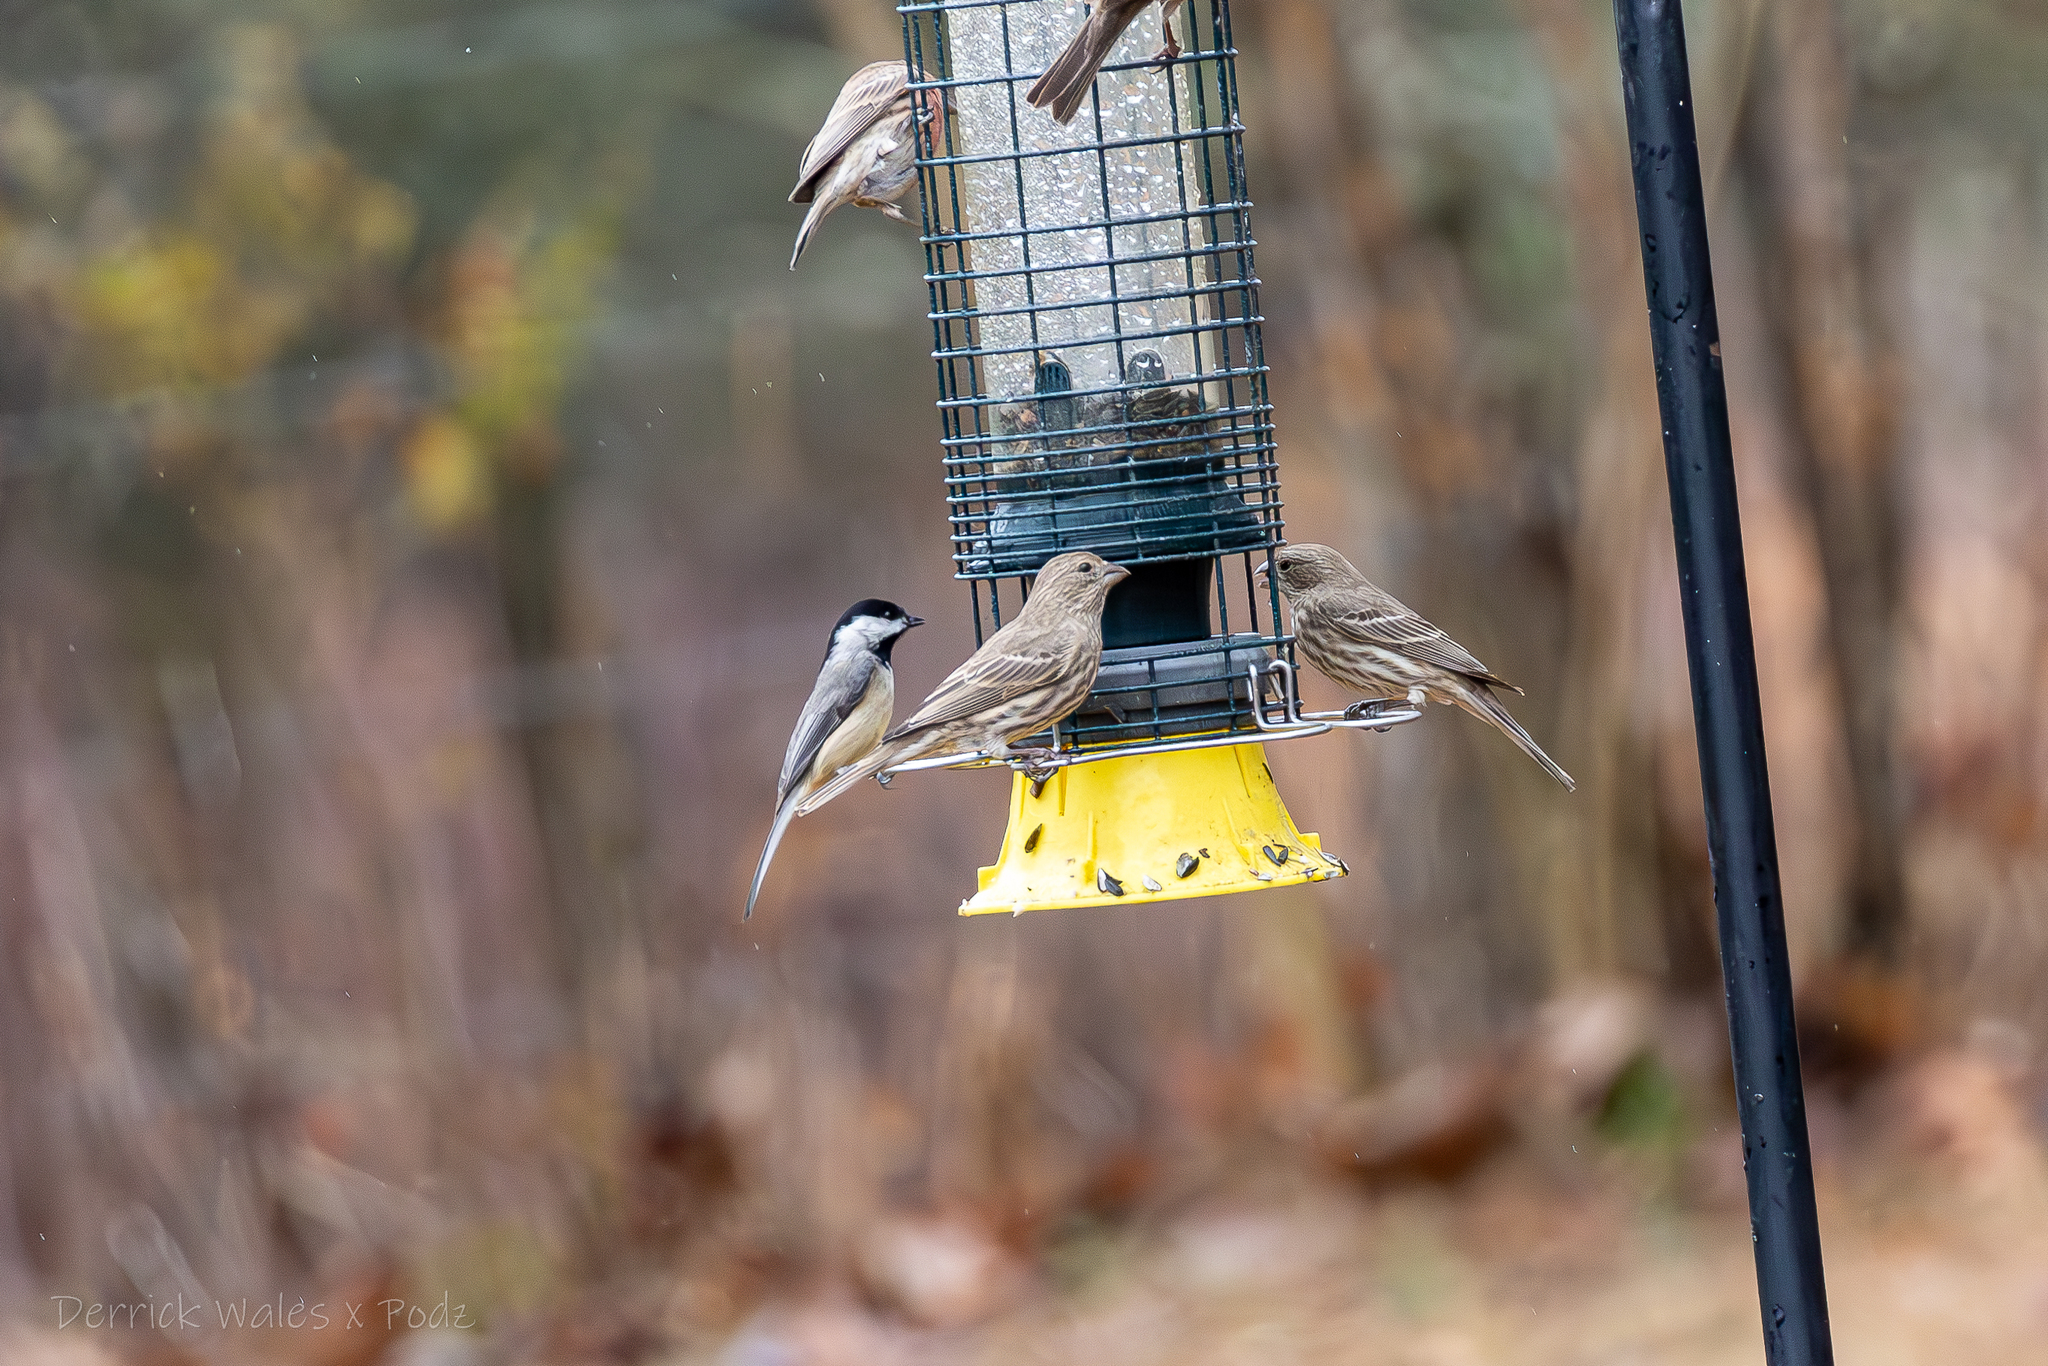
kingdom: Animalia
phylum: Chordata
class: Aves
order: Passeriformes
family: Fringillidae
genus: Haemorhous
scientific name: Haemorhous mexicanus
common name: House finch
